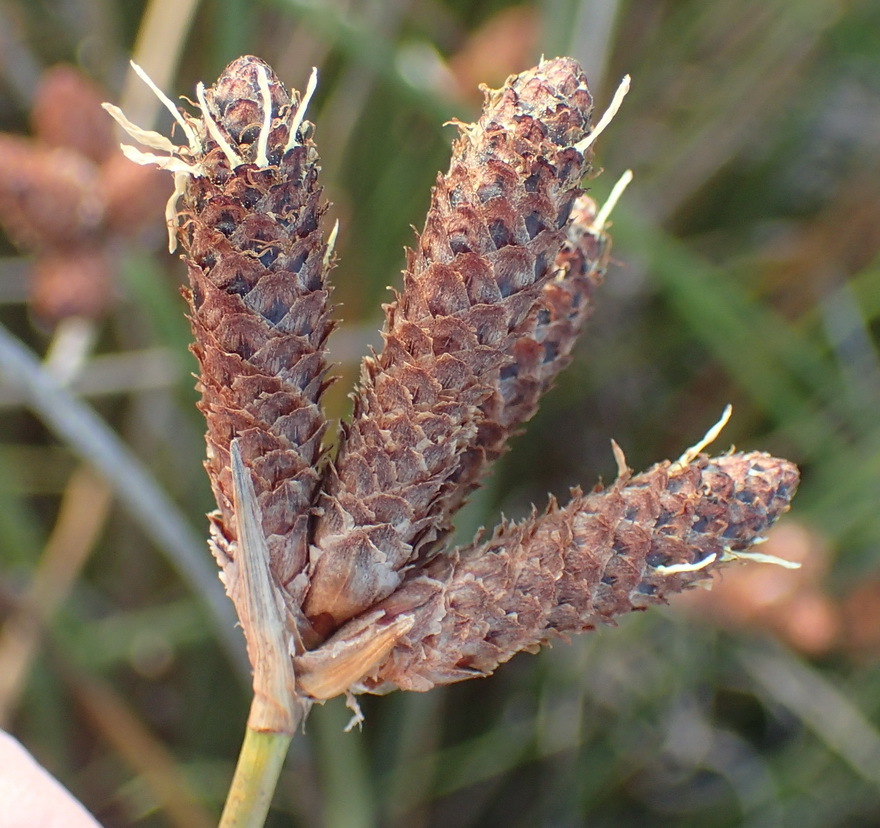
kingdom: Plantae
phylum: Tracheophyta
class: Liliopsida
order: Poales
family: Cyperaceae
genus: Hellmuthia
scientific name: Hellmuthia membranacea
